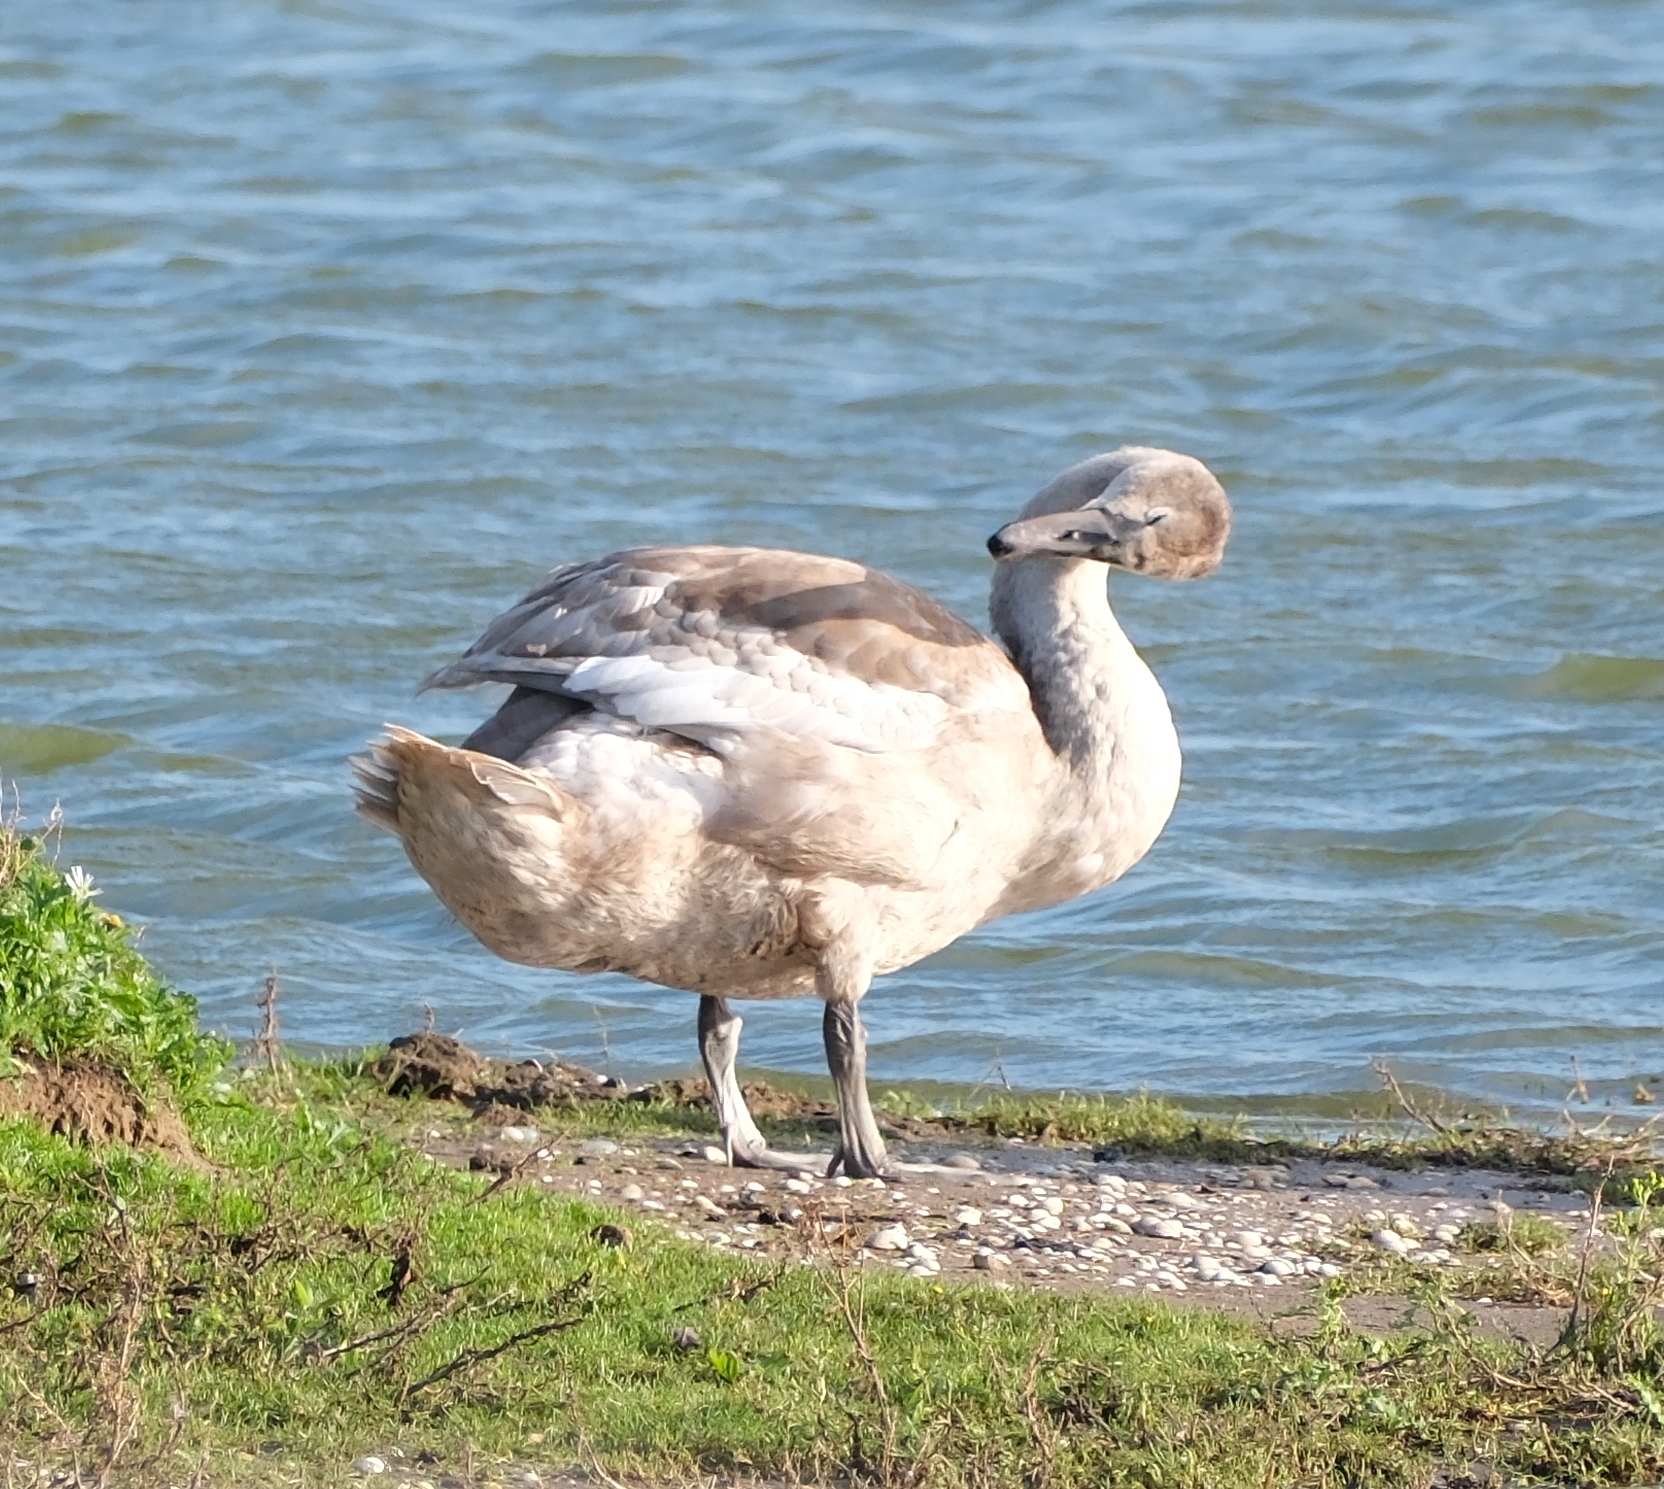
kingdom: Animalia
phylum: Chordata
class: Aves
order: Anseriformes
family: Anatidae
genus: Cygnus
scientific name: Cygnus olor
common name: Mute swan
